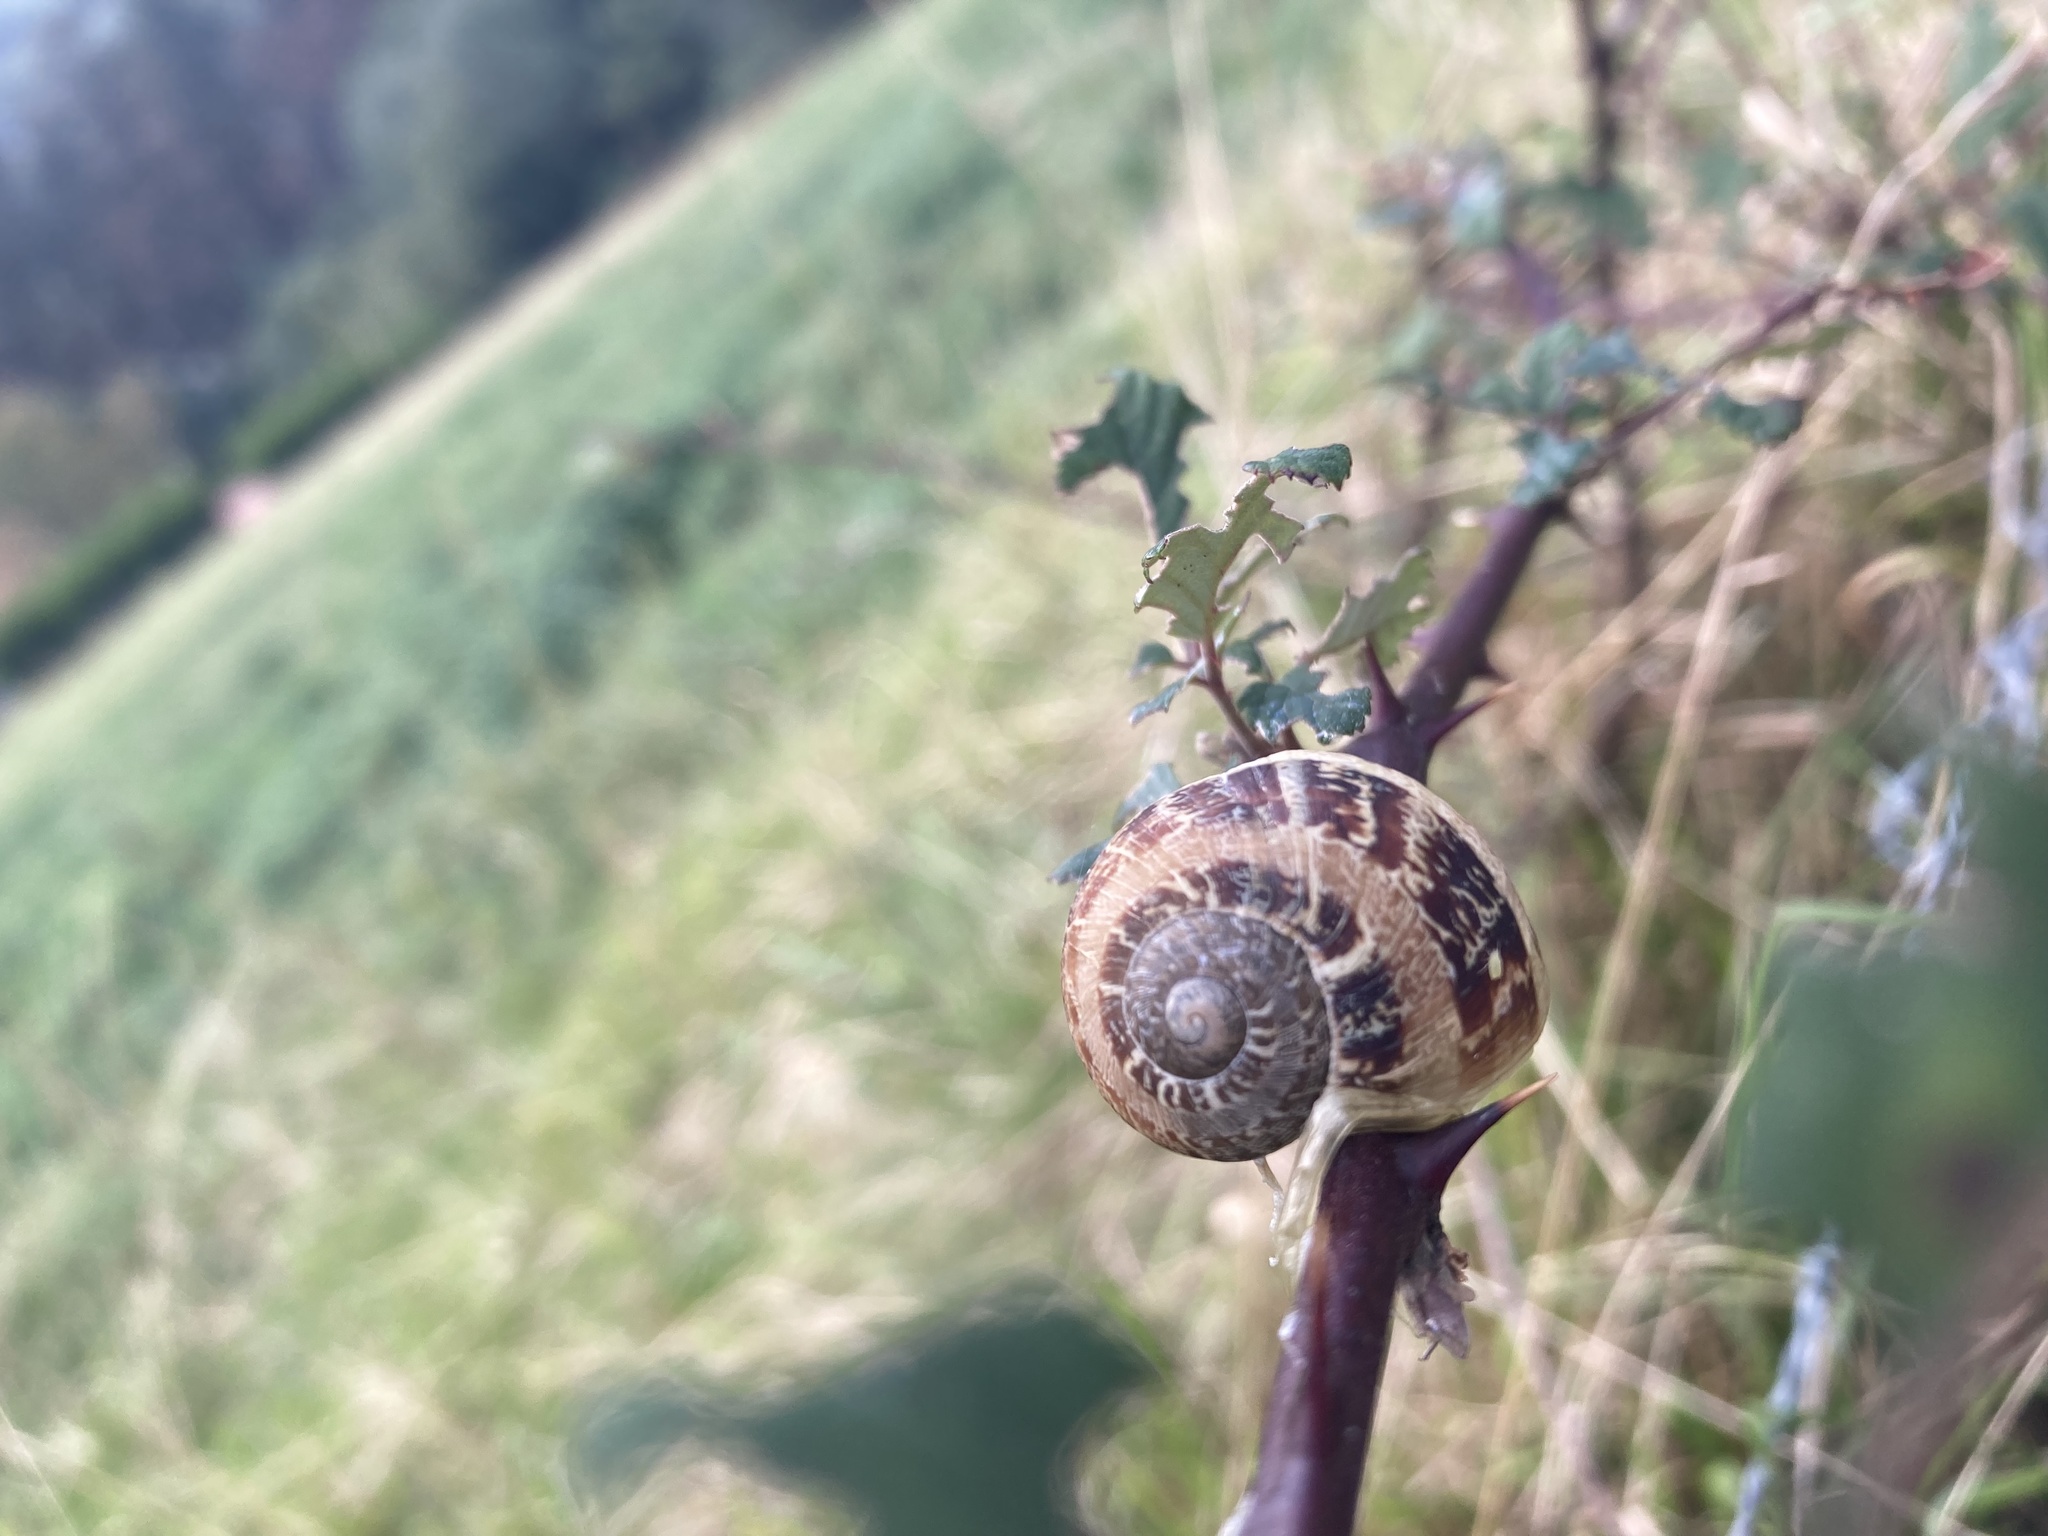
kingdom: Animalia
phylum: Mollusca
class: Gastropoda
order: Stylommatophora
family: Helicidae
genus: Cornu
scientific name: Cornu aspersum
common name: Brown garden snail
